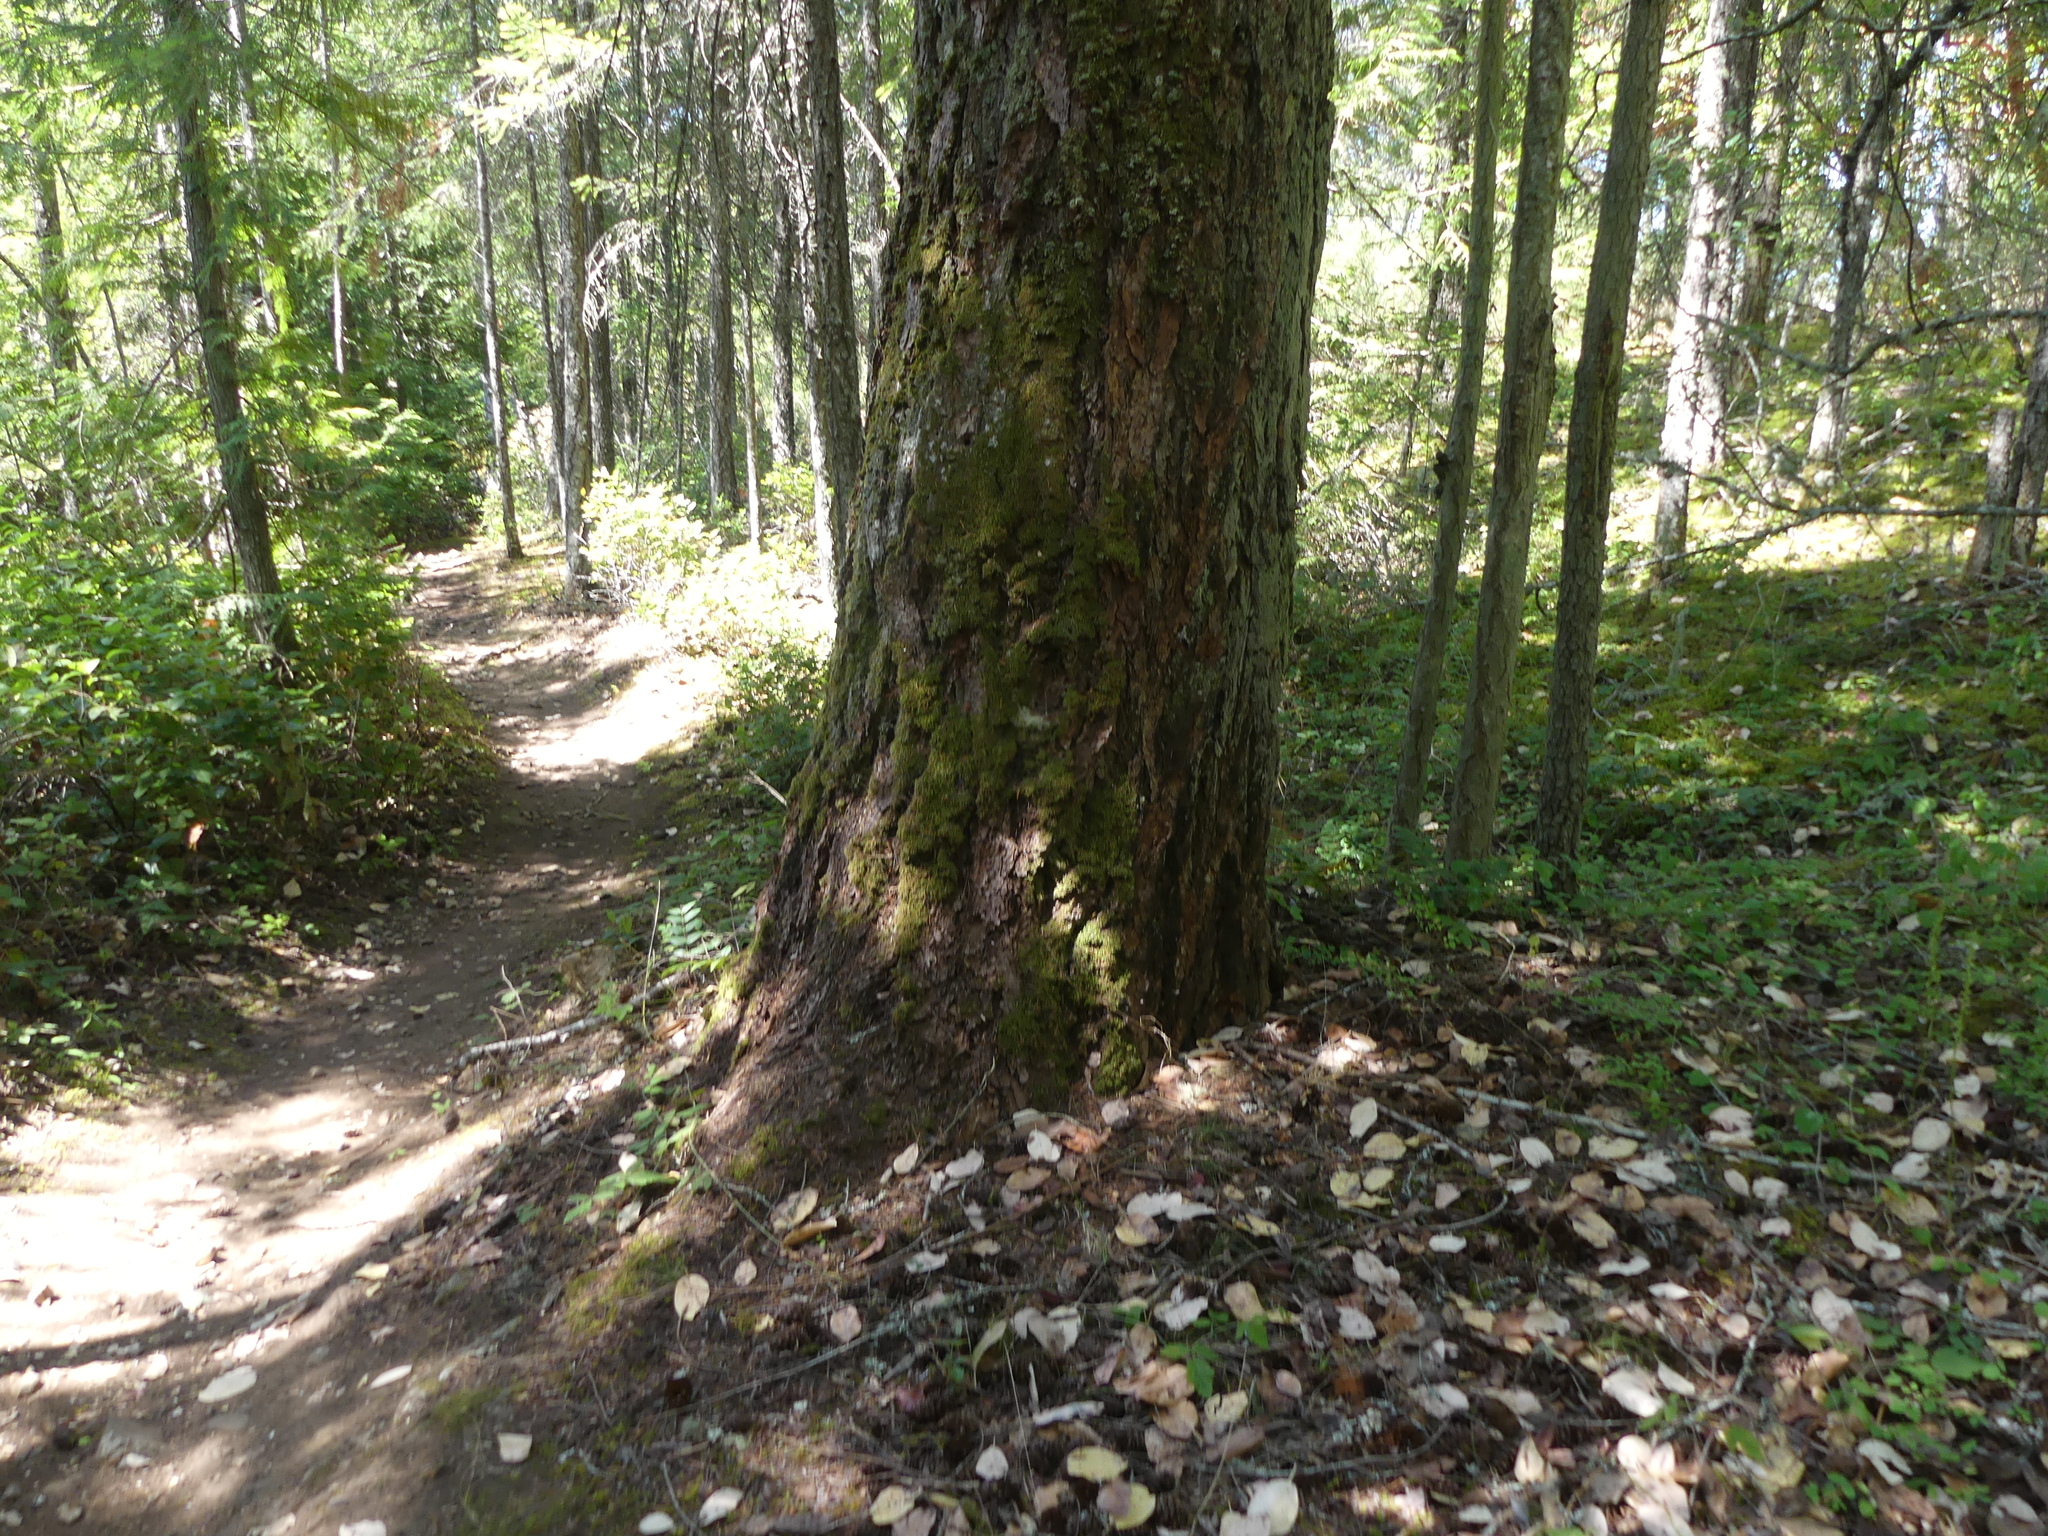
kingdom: Plantae
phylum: Tracheophyta
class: Pinopsida
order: Pinales
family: Pinaceae
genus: Pseudotsuga
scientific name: Pseudotsuga menziesii
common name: Douglas fir
